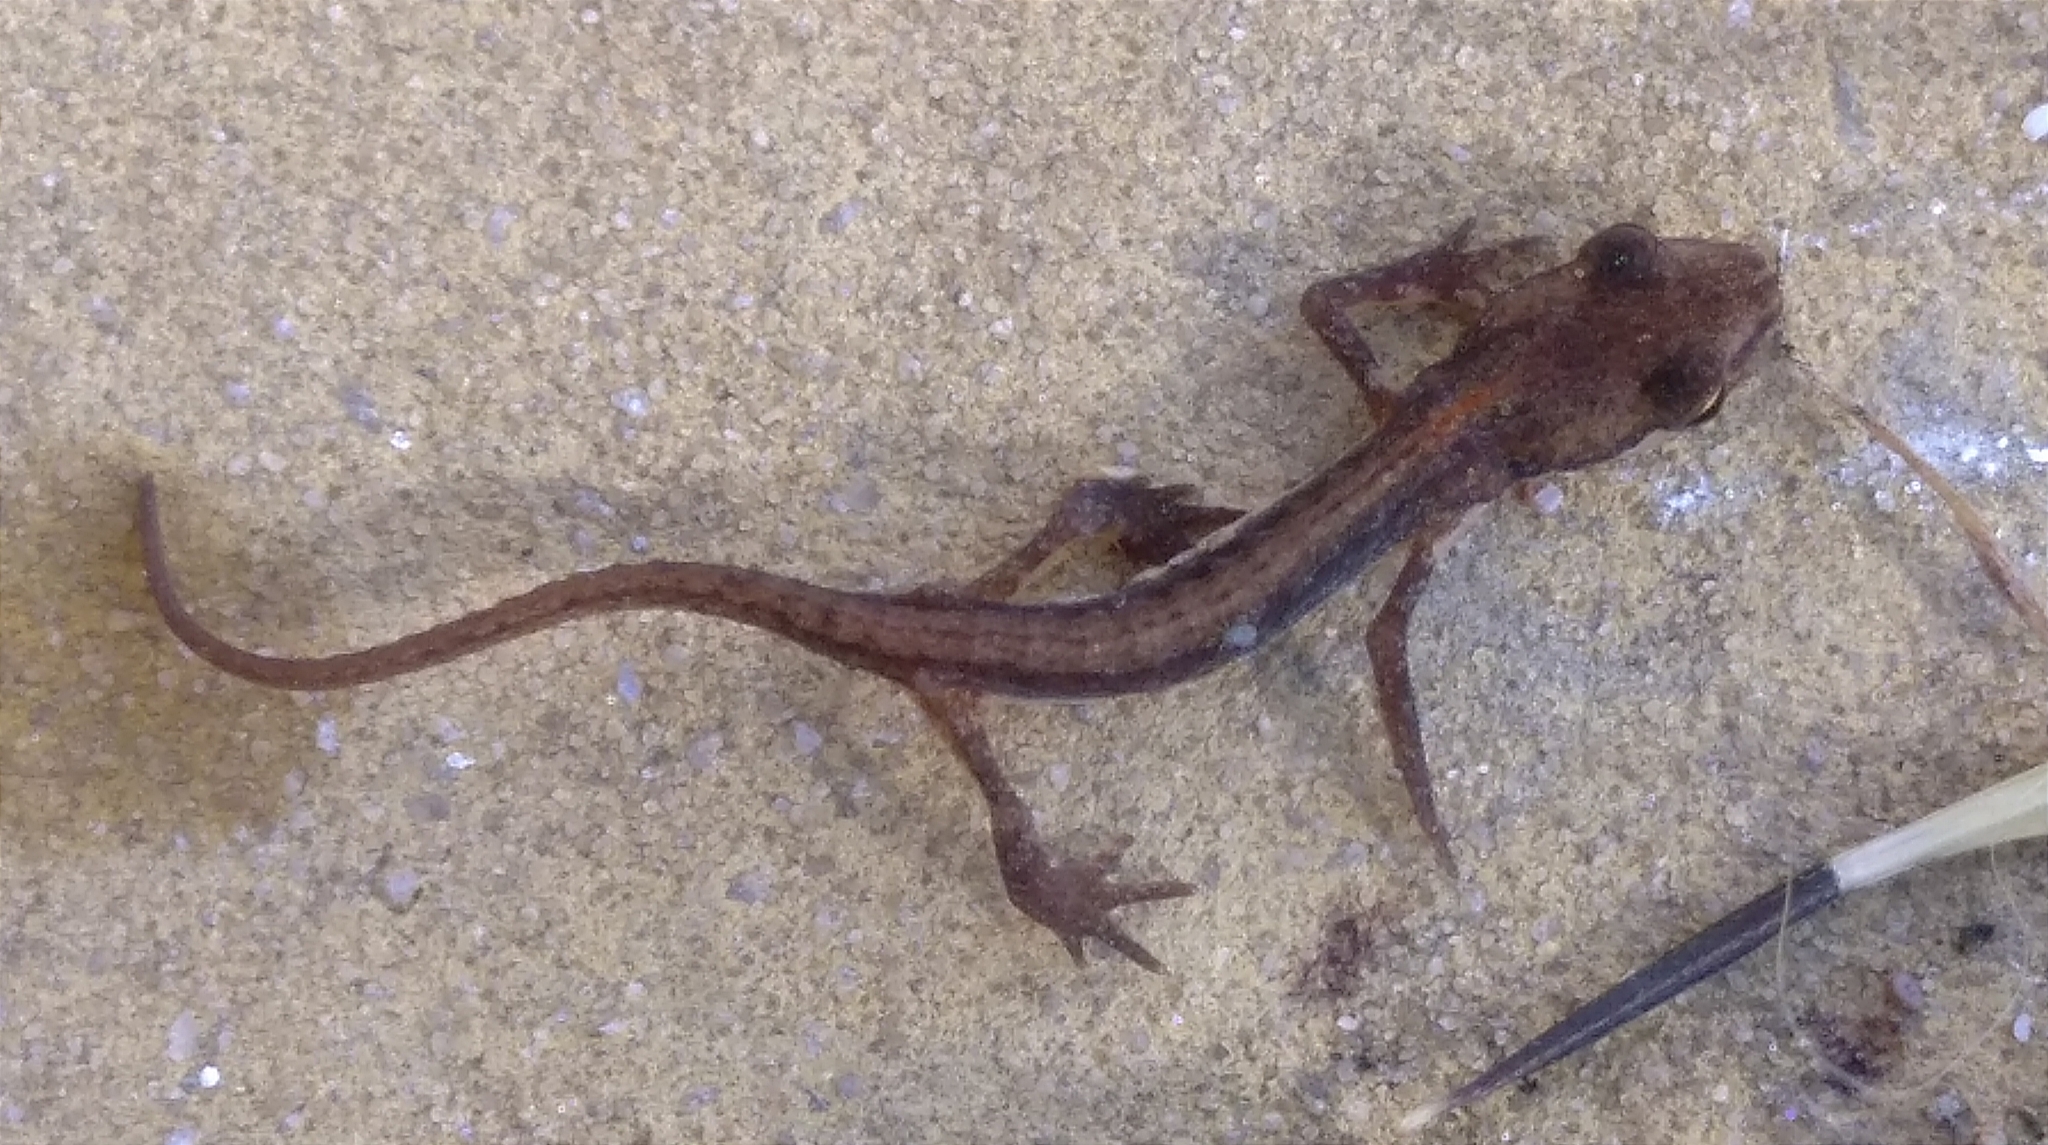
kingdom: Animalia
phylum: Chordata
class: Amphibia
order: Caudata
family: Salamandridae
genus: Lissotriton
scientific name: Lissotriton schmidtleri
